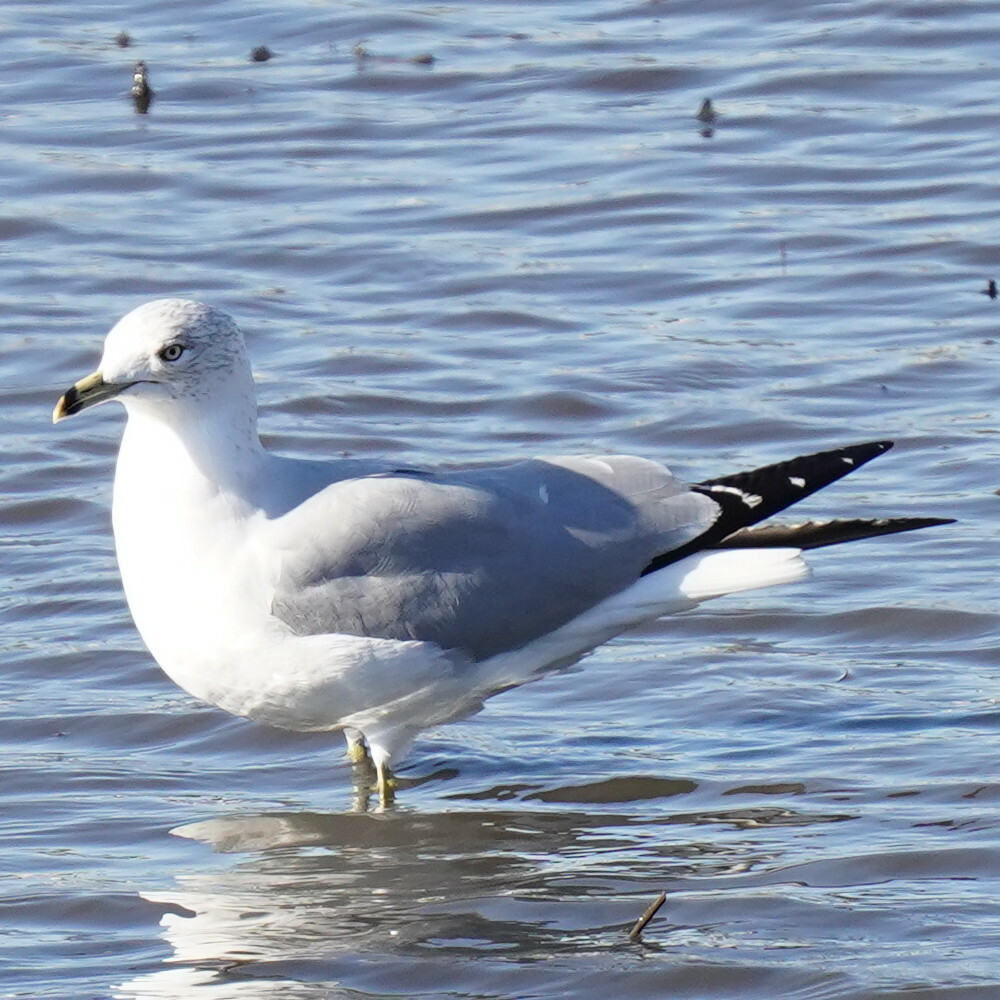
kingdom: Animalia
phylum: Chordata
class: Aves
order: Charadriiformes
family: Laridae
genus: Larus
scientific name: Larus delawarensis
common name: Ring-billed gull
